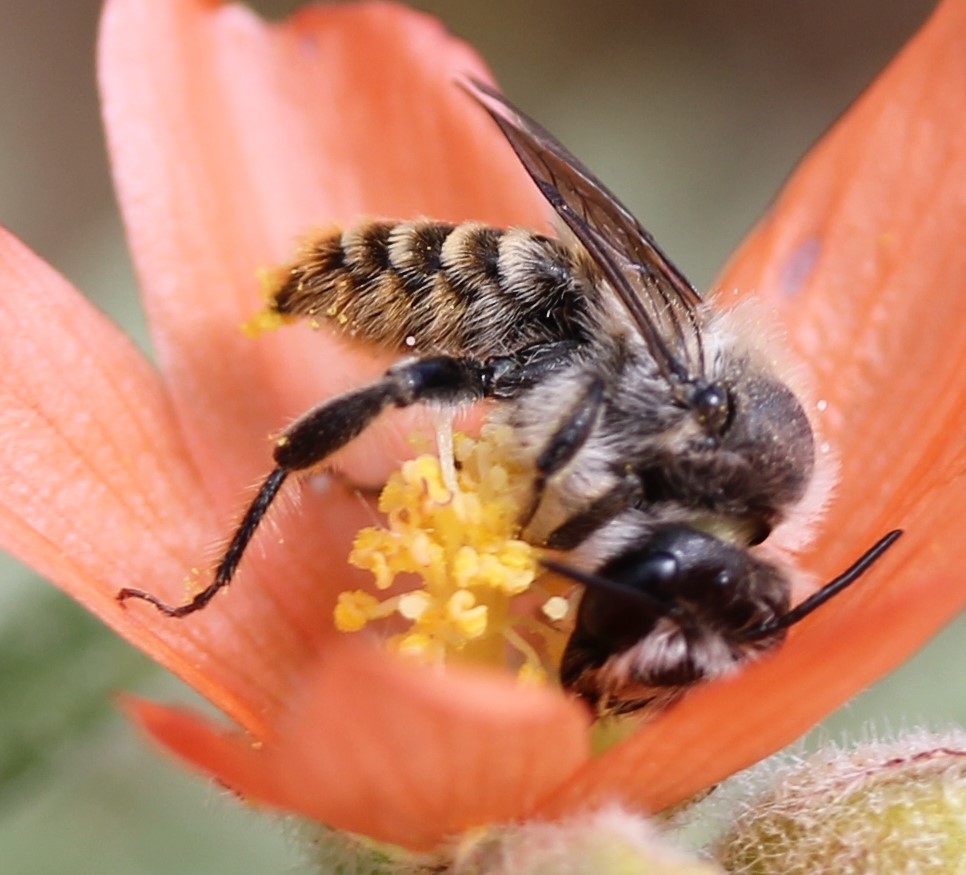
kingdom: Animalia
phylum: Arthropoda
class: Insecta
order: Hymenoptera
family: Megachilidae
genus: Lithurgopsis
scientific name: Lithurgopsis apicalis
